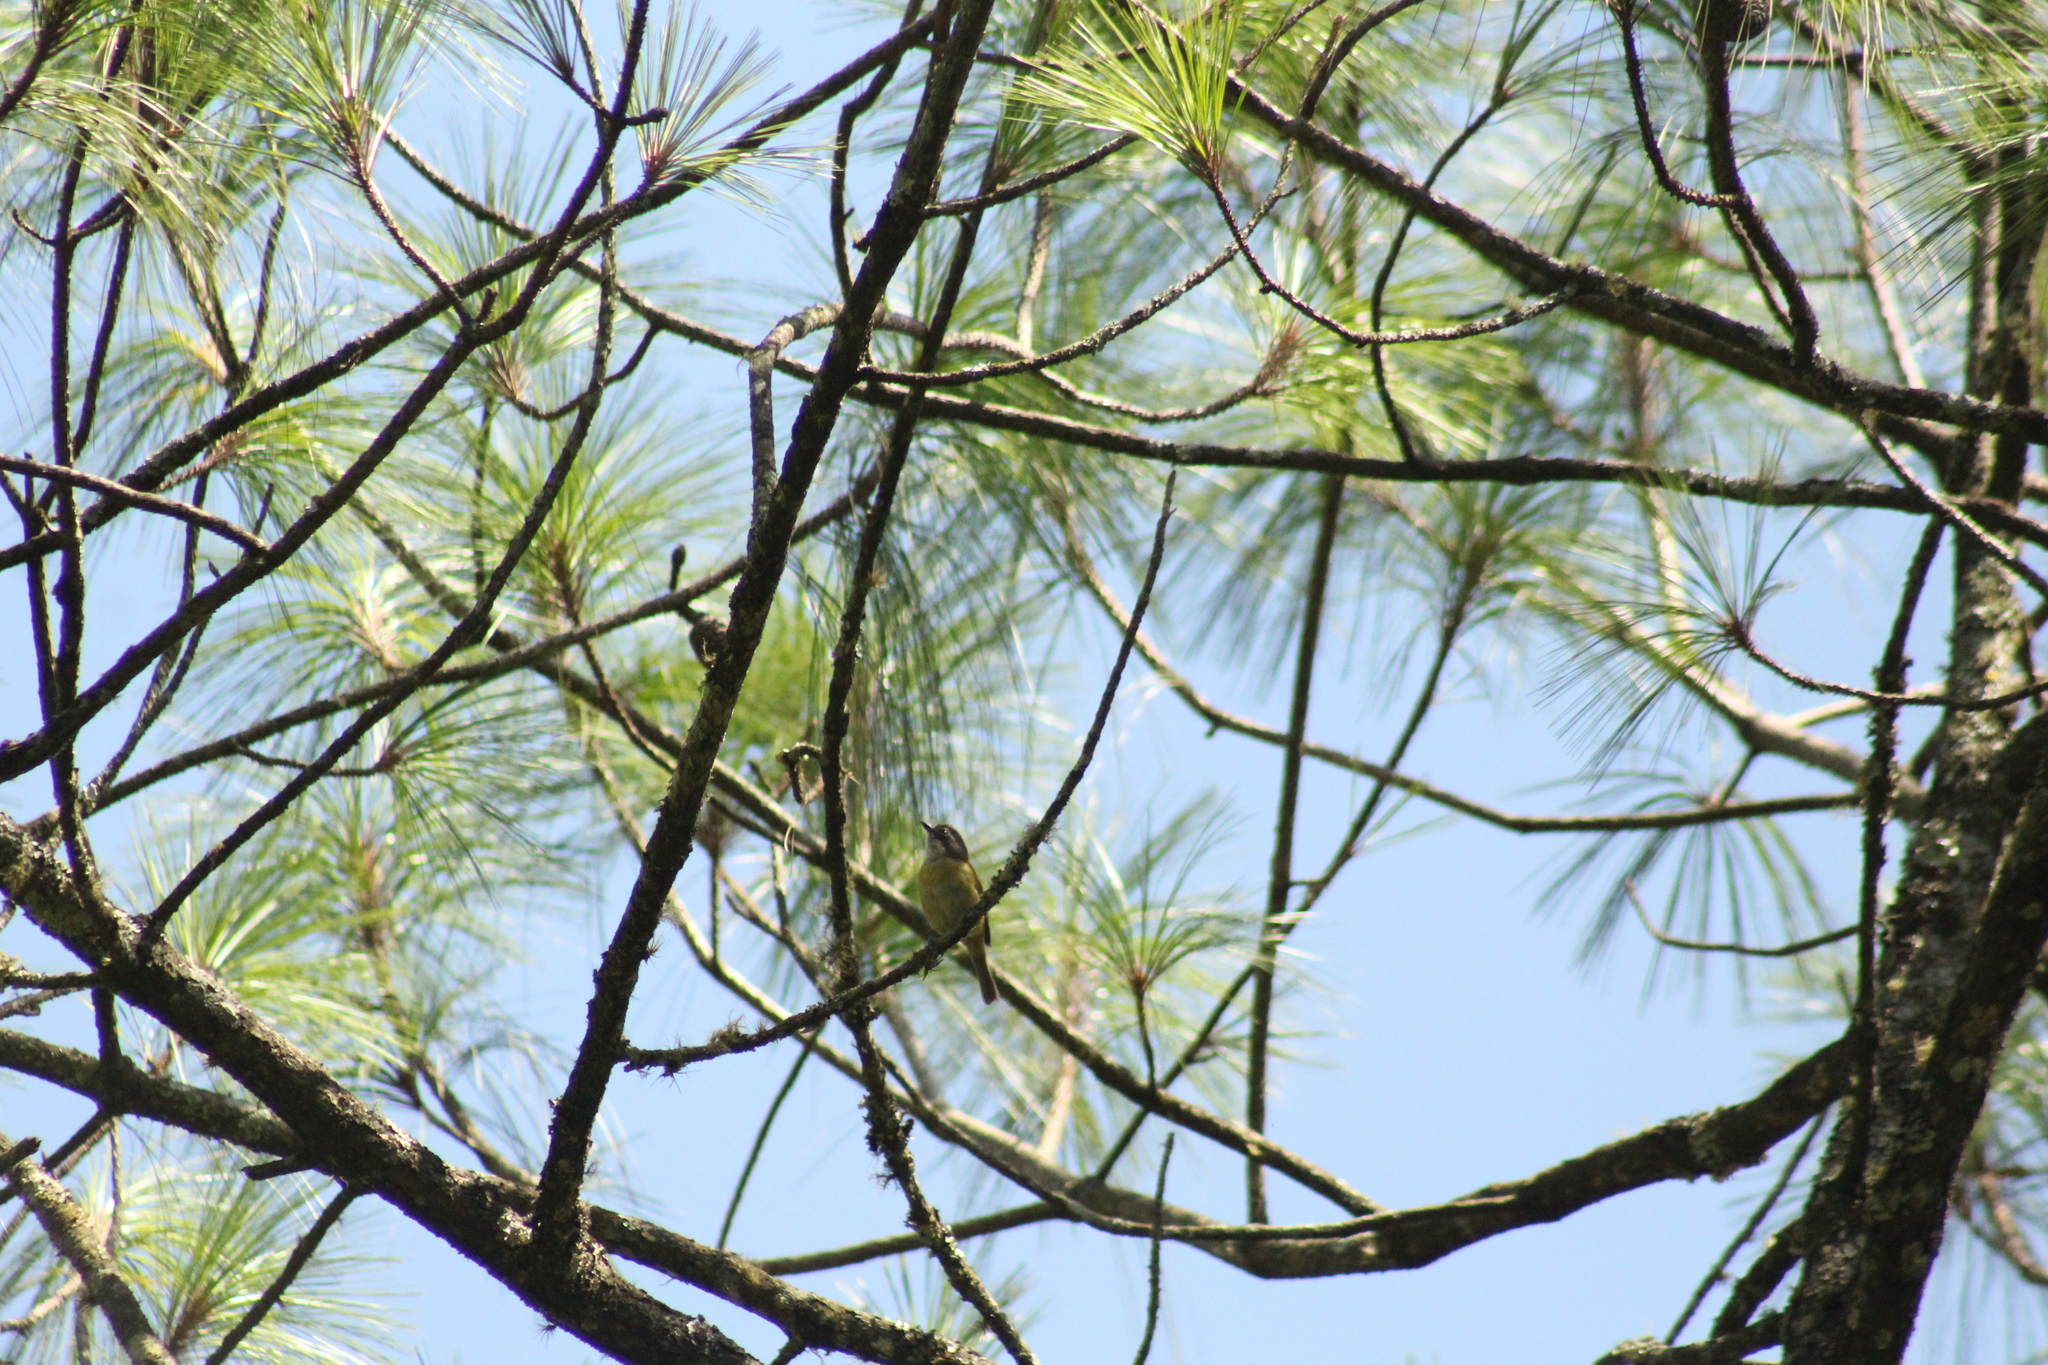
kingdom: Animalia
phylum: Chordata
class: Aves
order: Passeriformes
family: Passerellidae
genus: Chlorospingus
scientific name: Chlorospingus flavopectus
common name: Common chlorospingus
